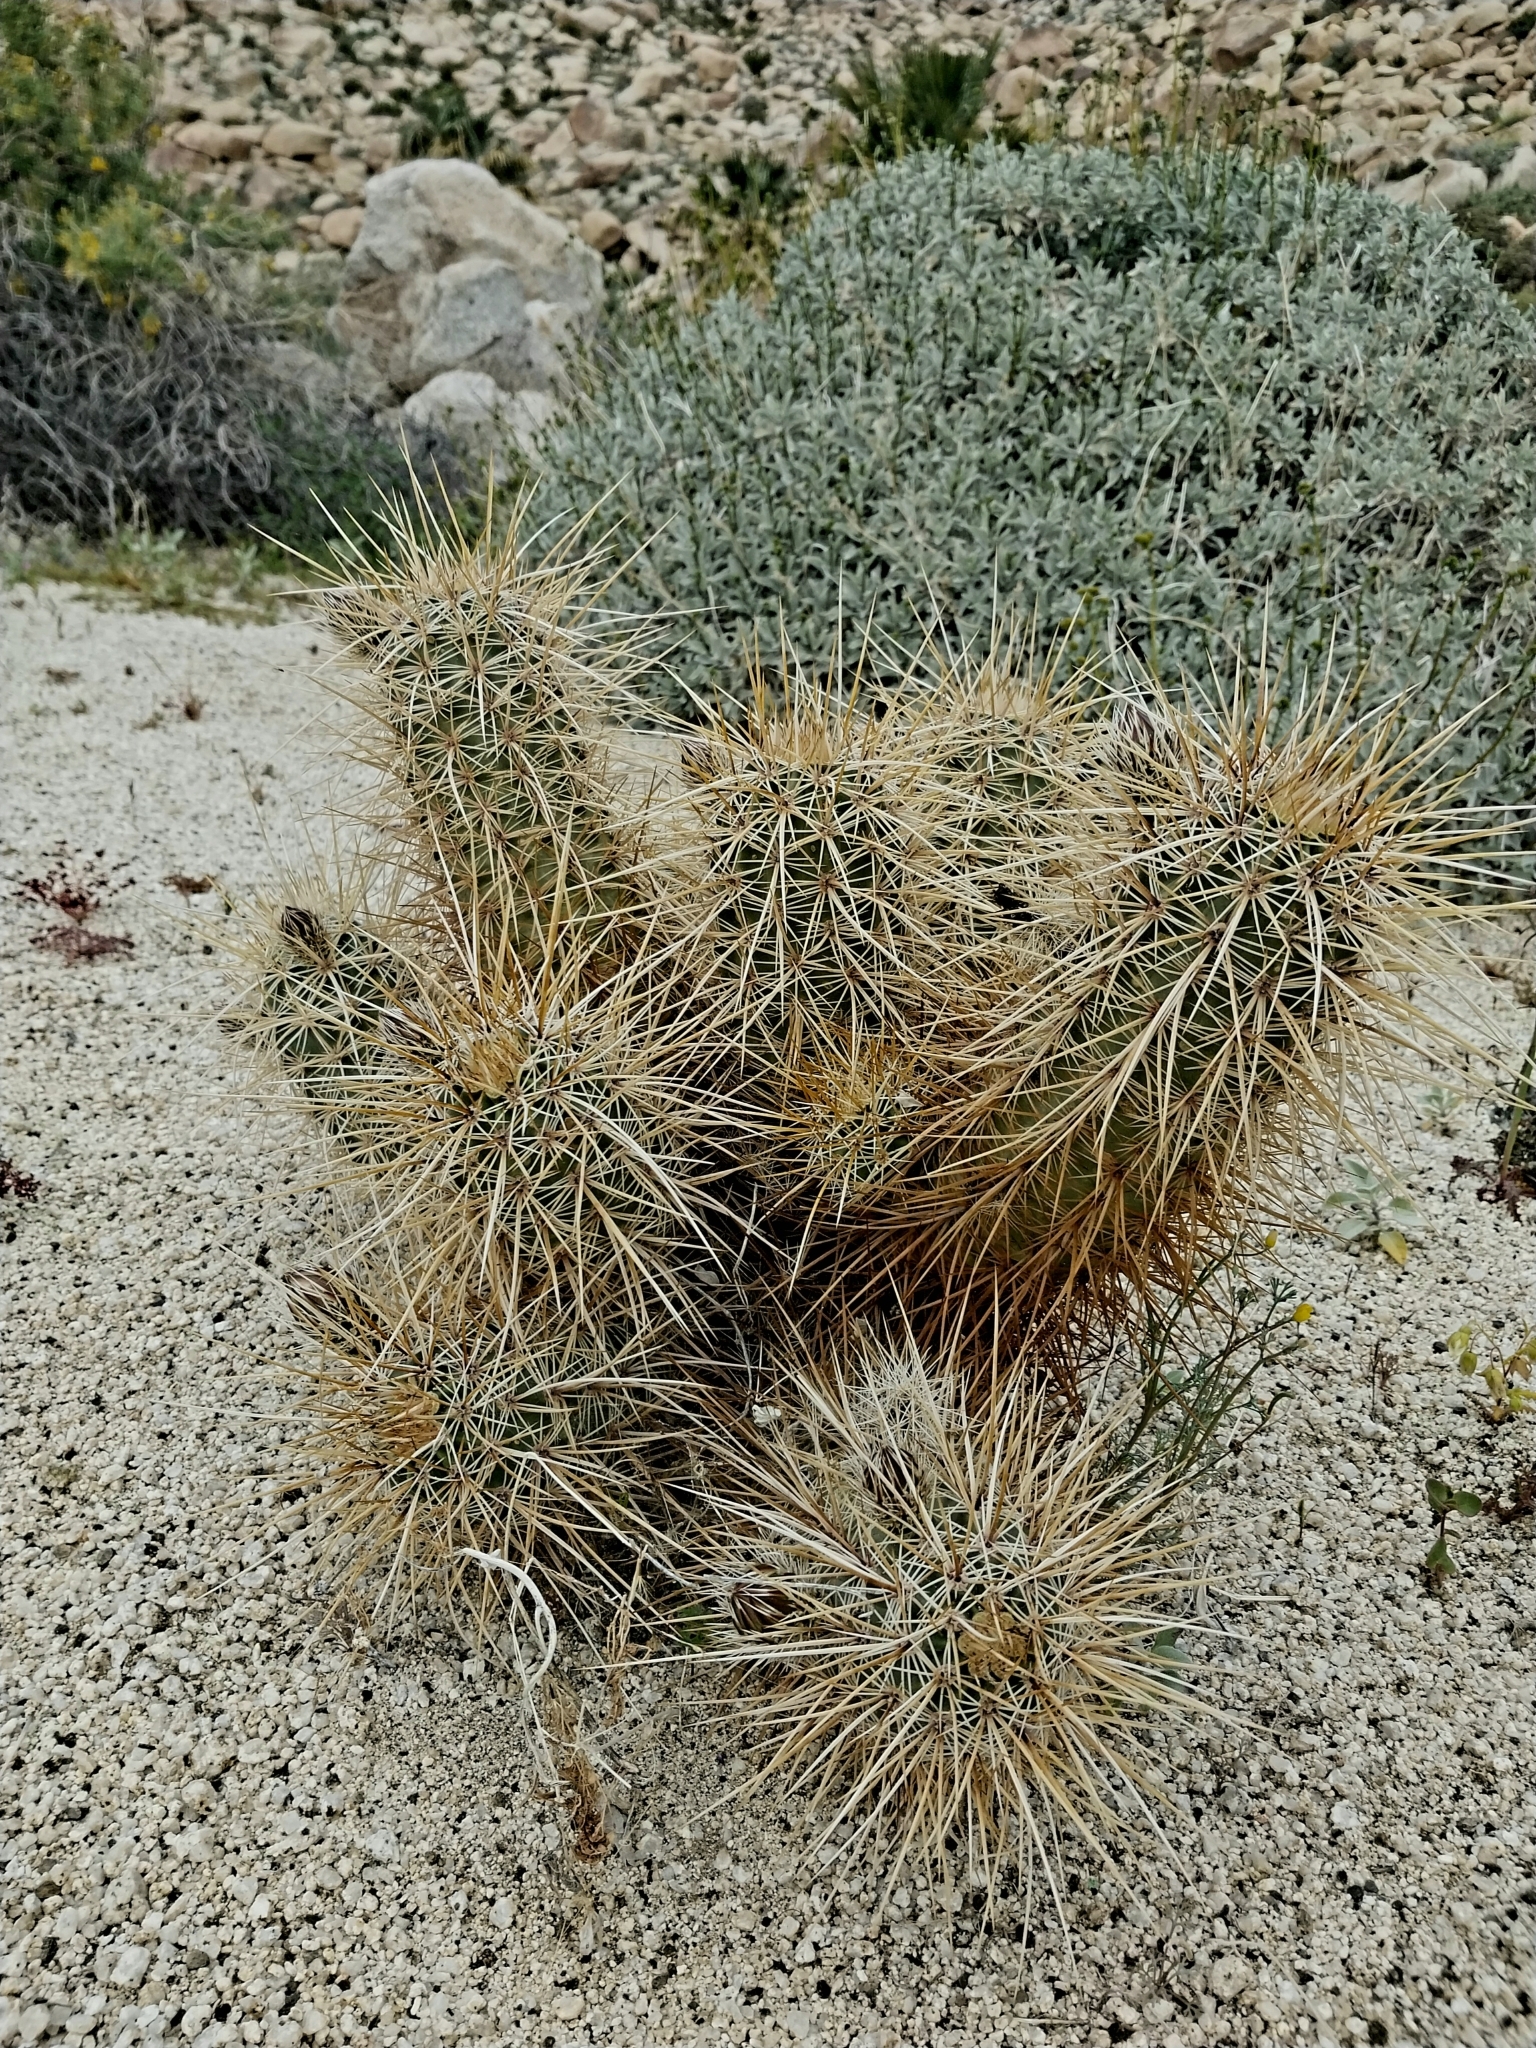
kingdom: Plantae
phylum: Tracheophyta
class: Magnoliopsida
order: Caryophyllales
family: Cactaceae
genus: Echinocereus
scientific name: Echinocereus engelmannii
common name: Engelmann's hedgehog cactus
